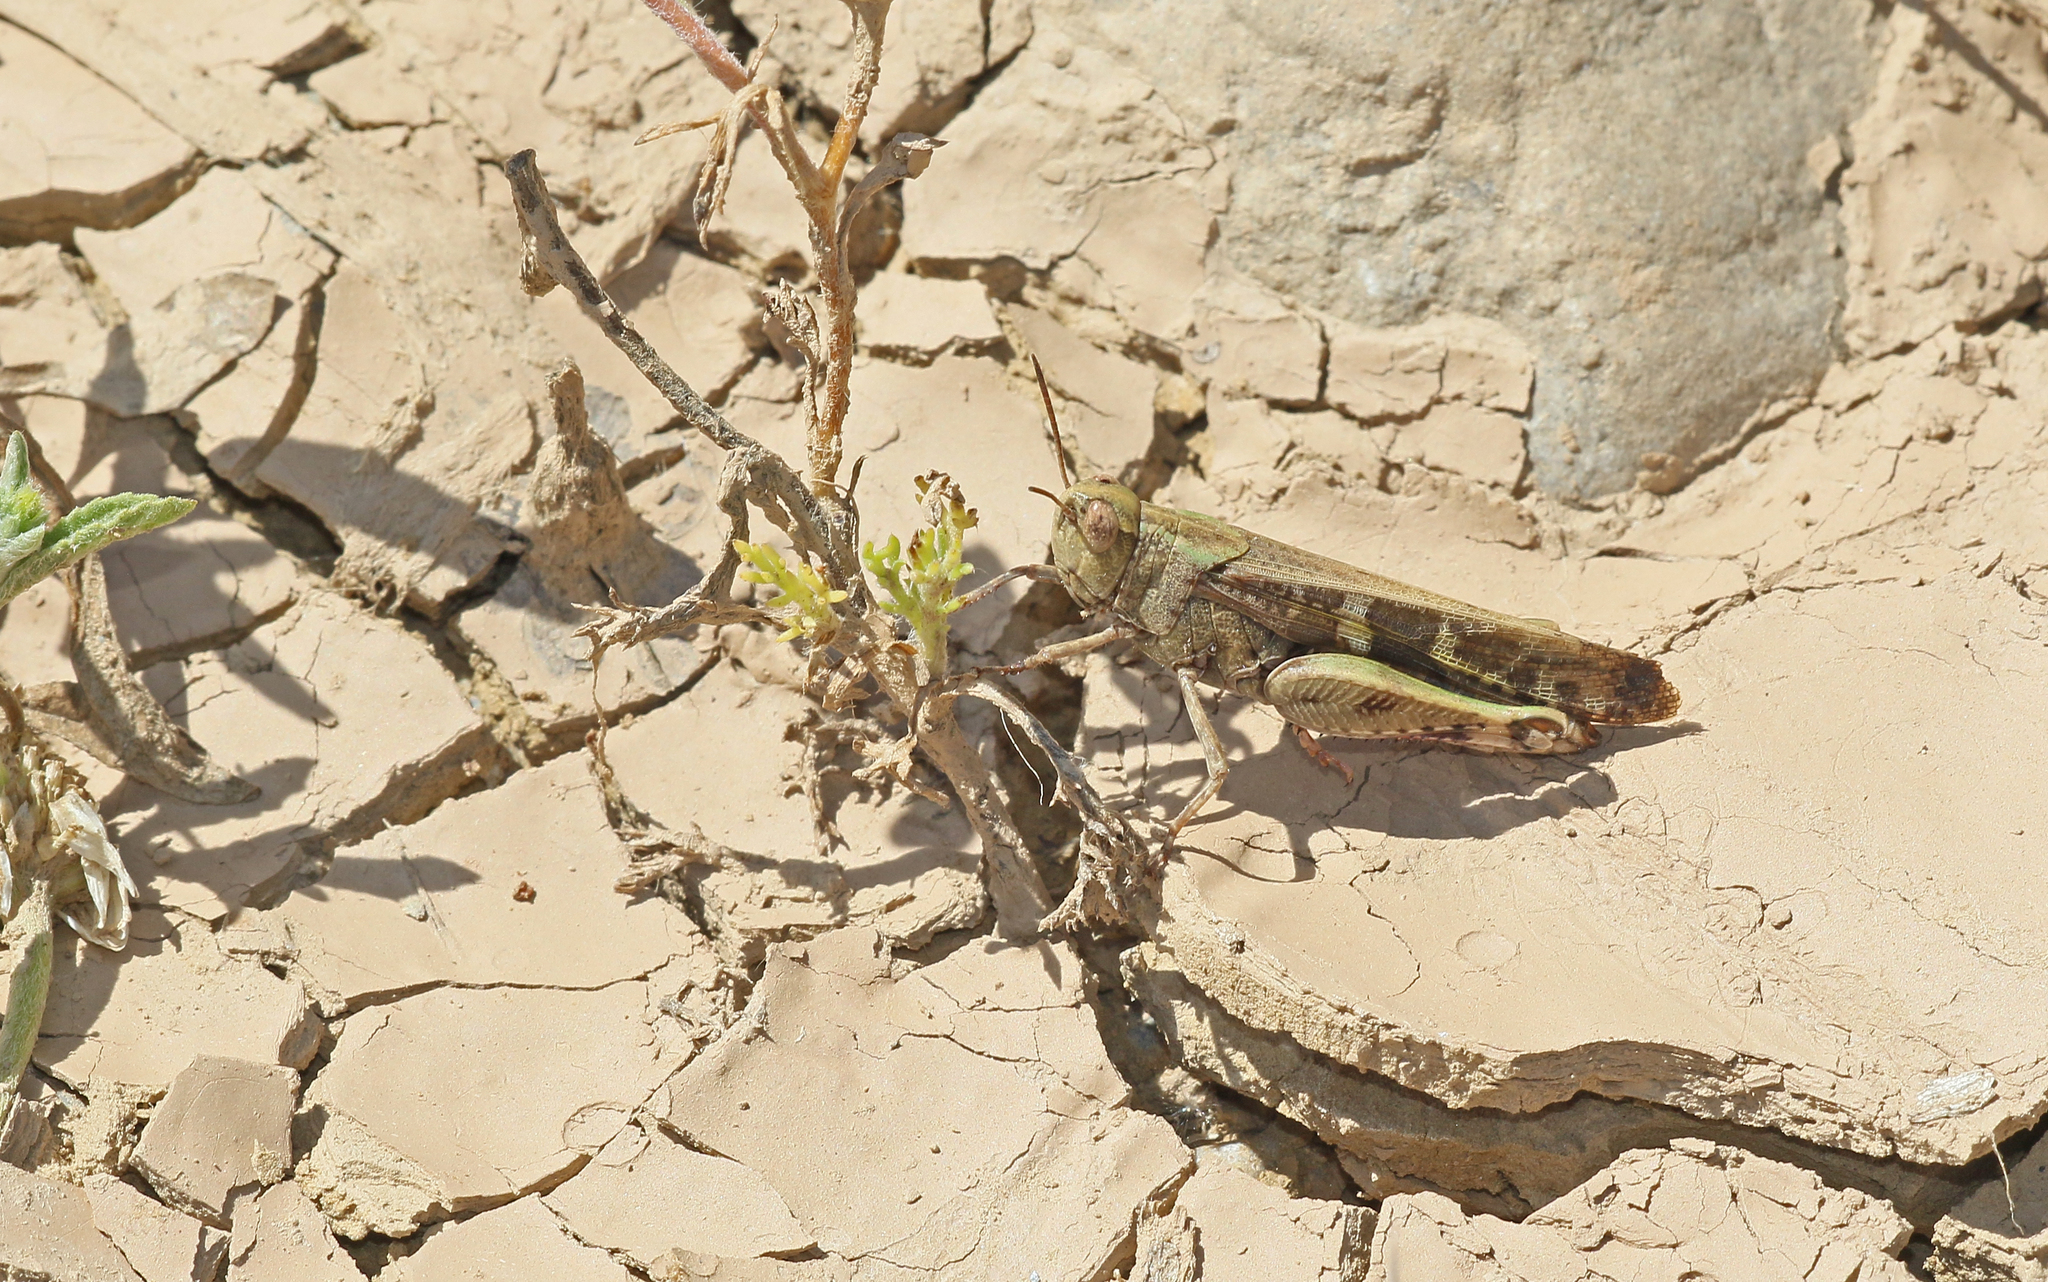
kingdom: Animalia
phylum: Arthropoda
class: Insecta
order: Orthoptera
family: Acrididae
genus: Aiolopus
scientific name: Aiolopus strepens
